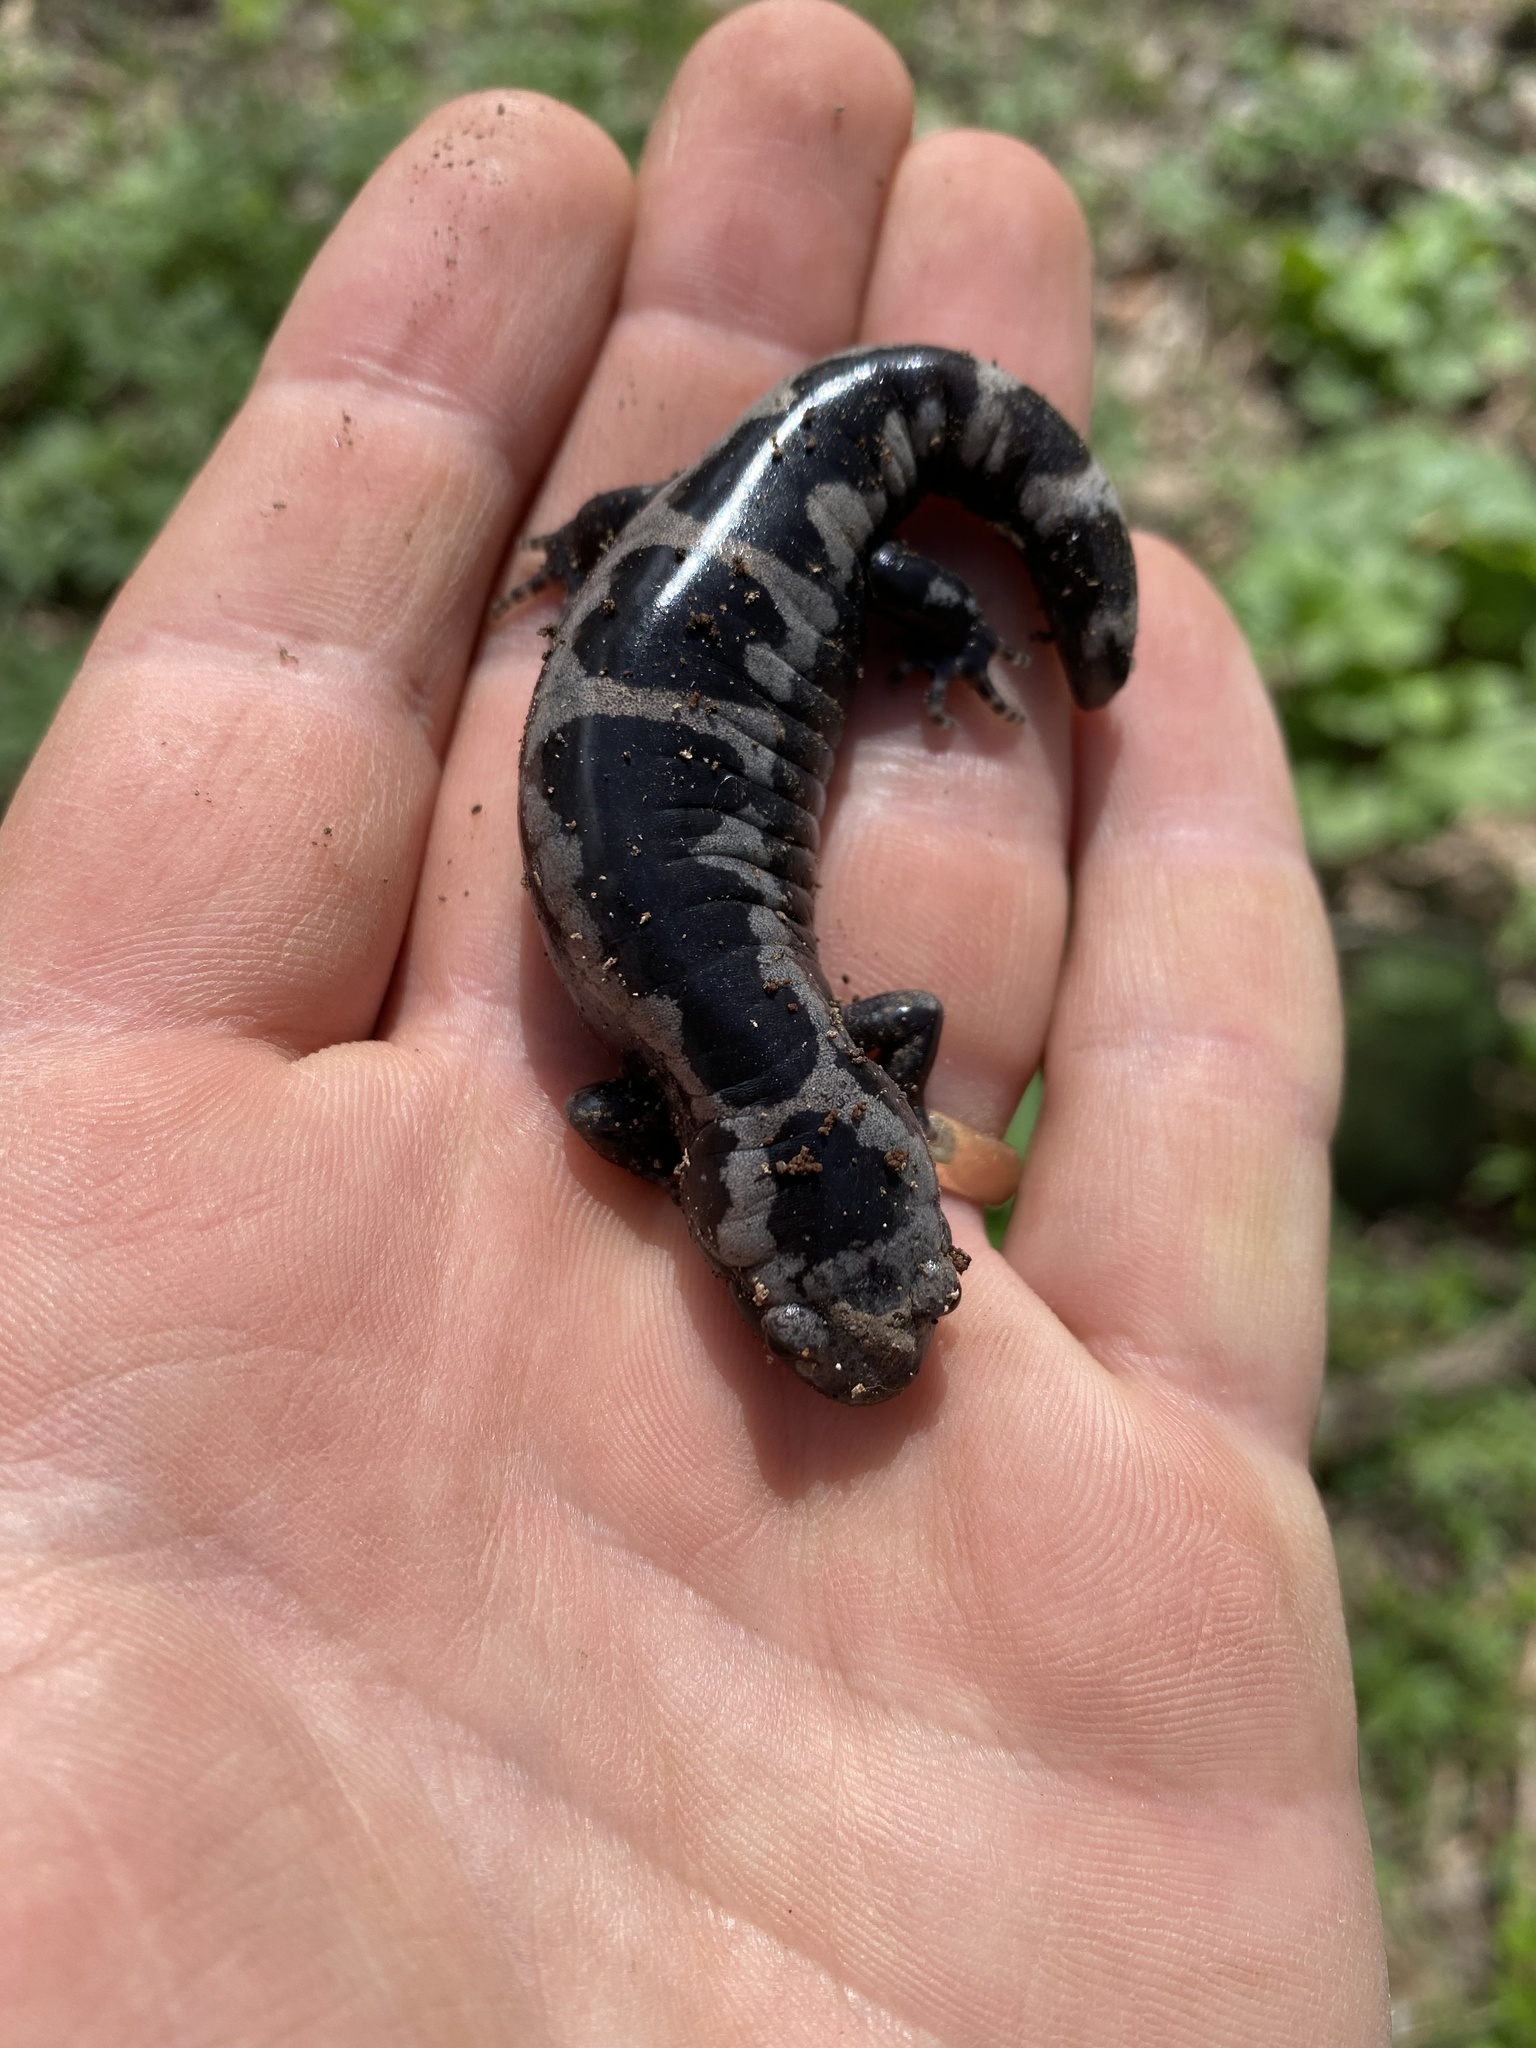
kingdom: Animalia
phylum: Chordata
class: Amphibia
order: Caudata
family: Ambystomatidae
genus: Ambystoma
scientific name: Ambystoma opacum
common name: Marbled salamander
